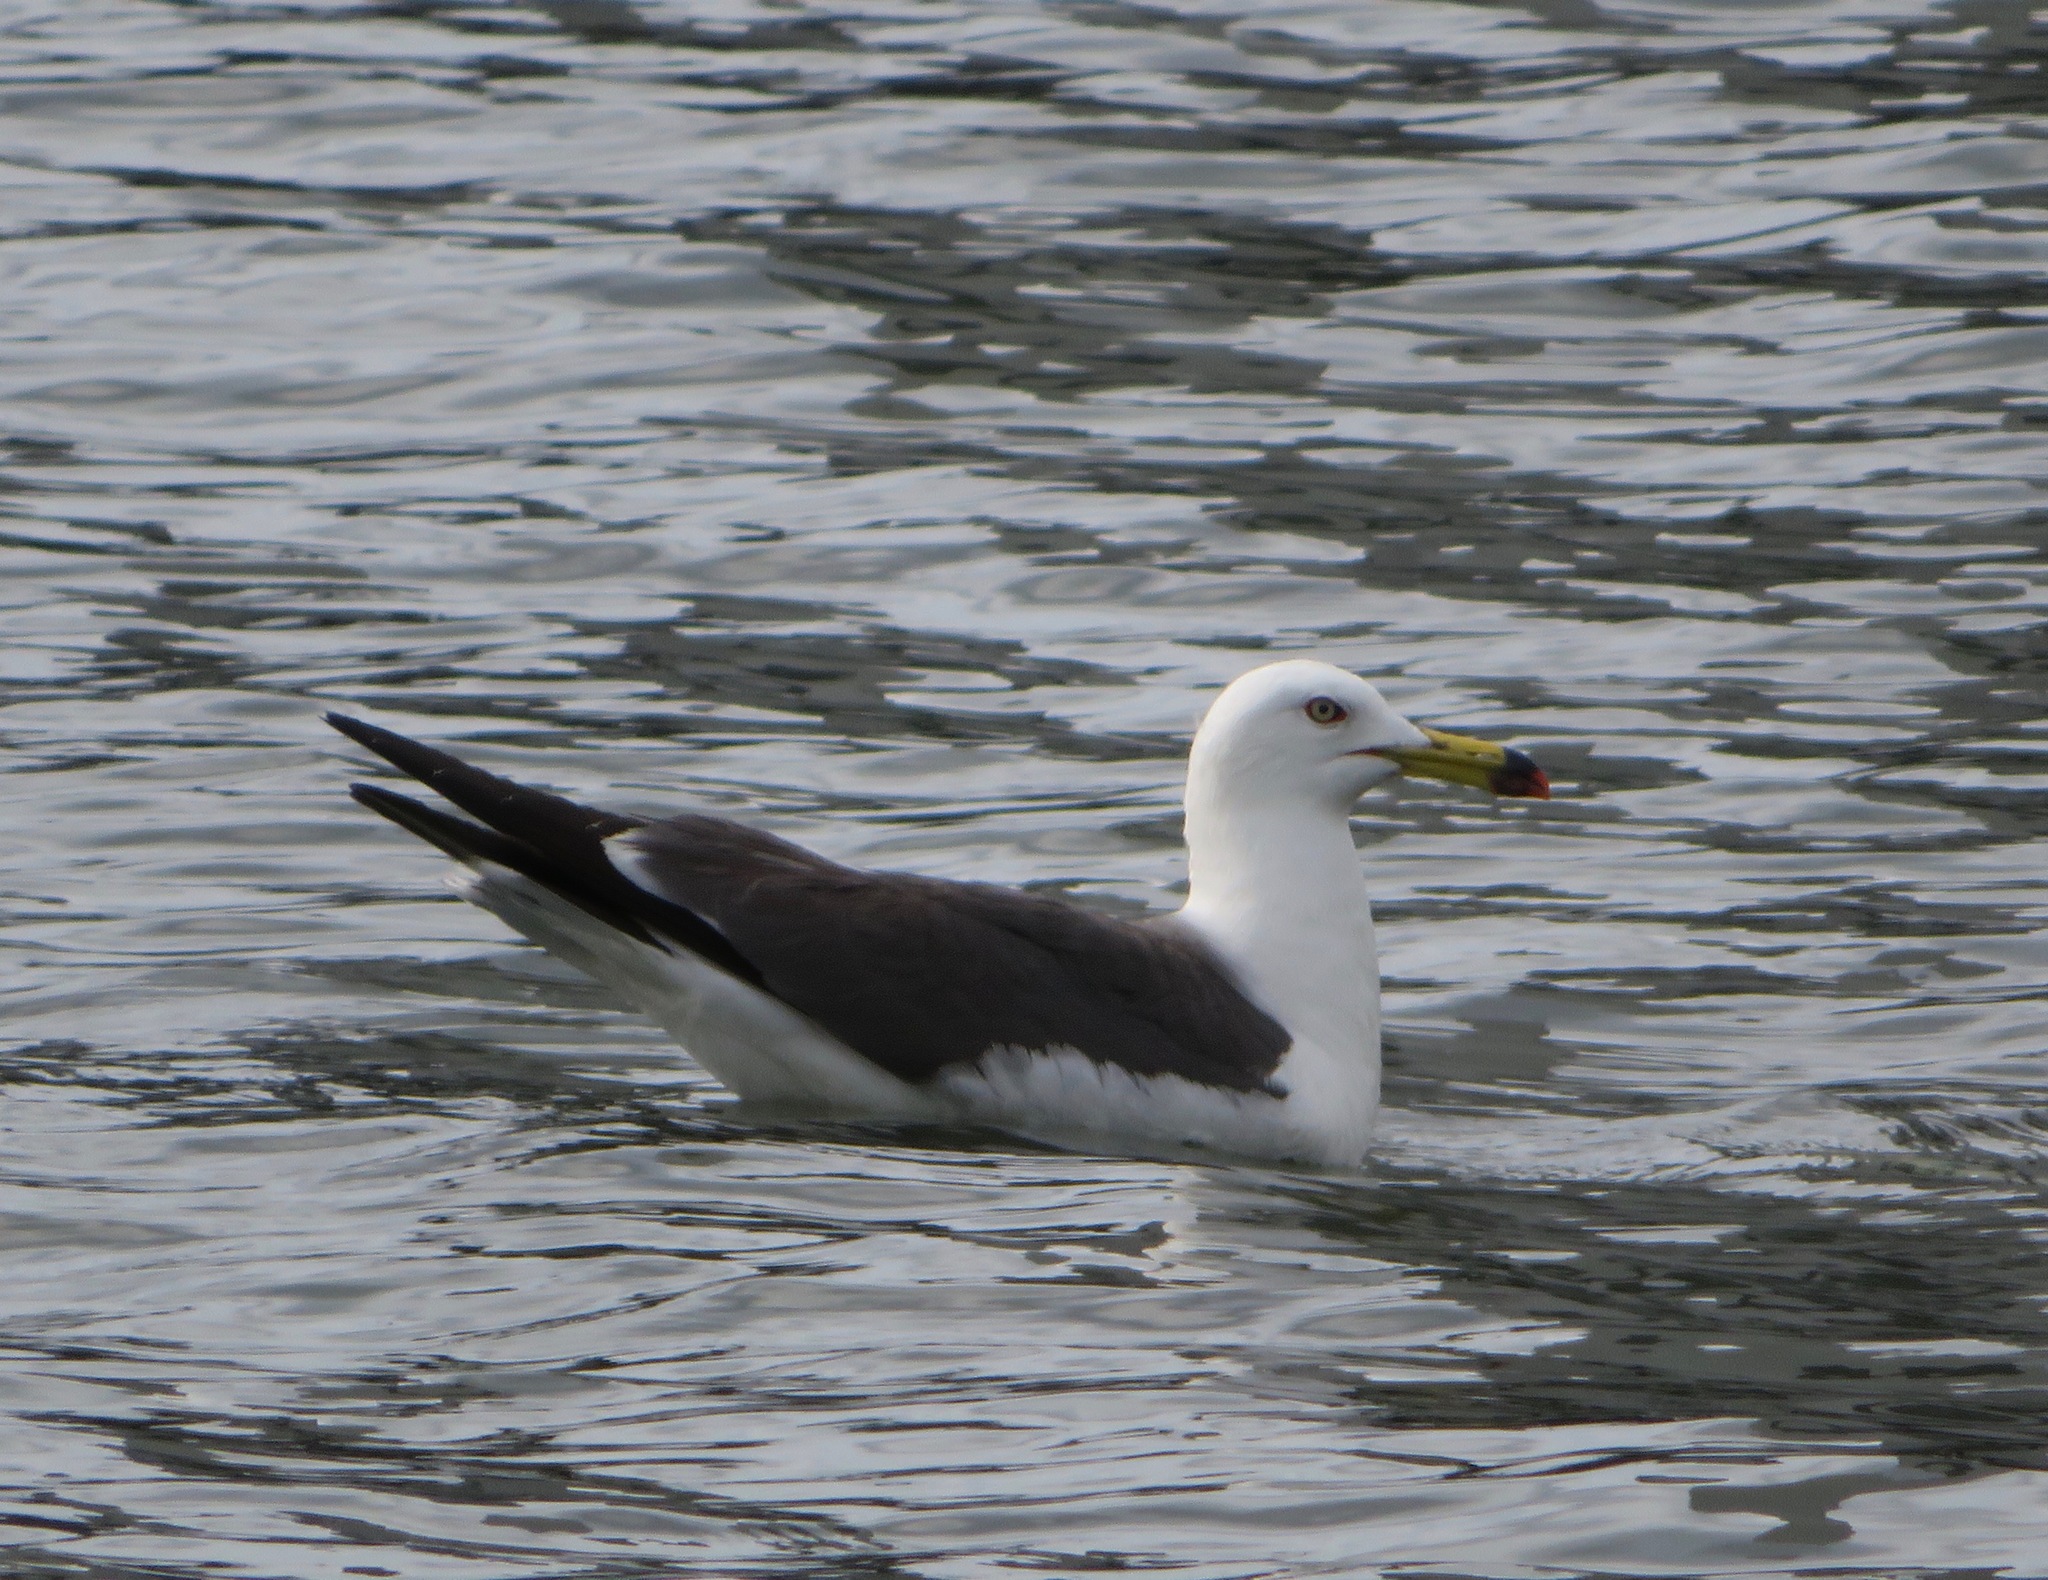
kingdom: Animalia
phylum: Chordata
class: Aves
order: Charadriiformes
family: Laridae
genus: Larus
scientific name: Larus crassirostris
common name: Black-tailed gull
